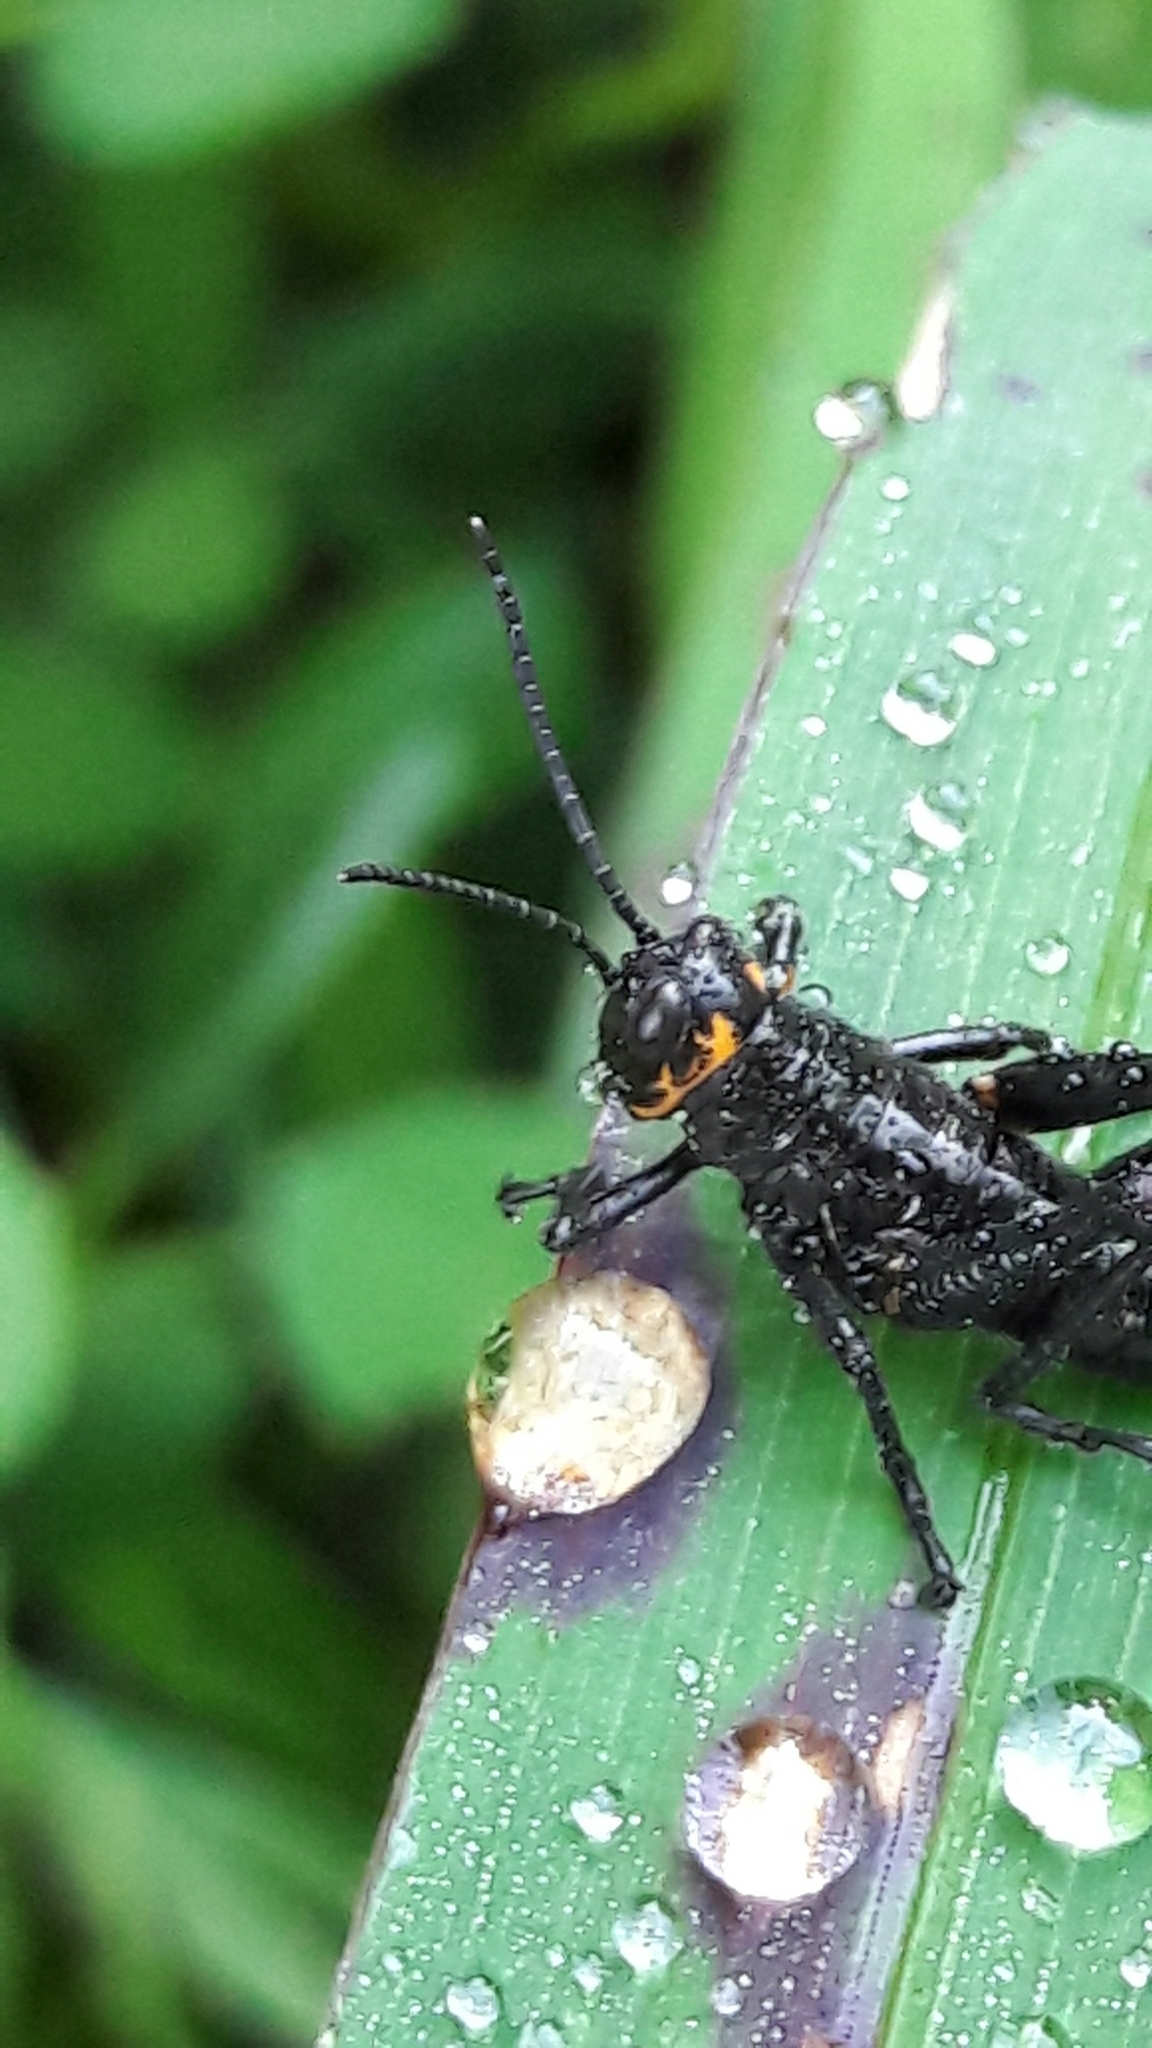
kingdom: Animalia
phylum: Arthropoda
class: Insecta
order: Orthoptera
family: Romaleidae
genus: Chromacris
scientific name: Chromacris speciosa
